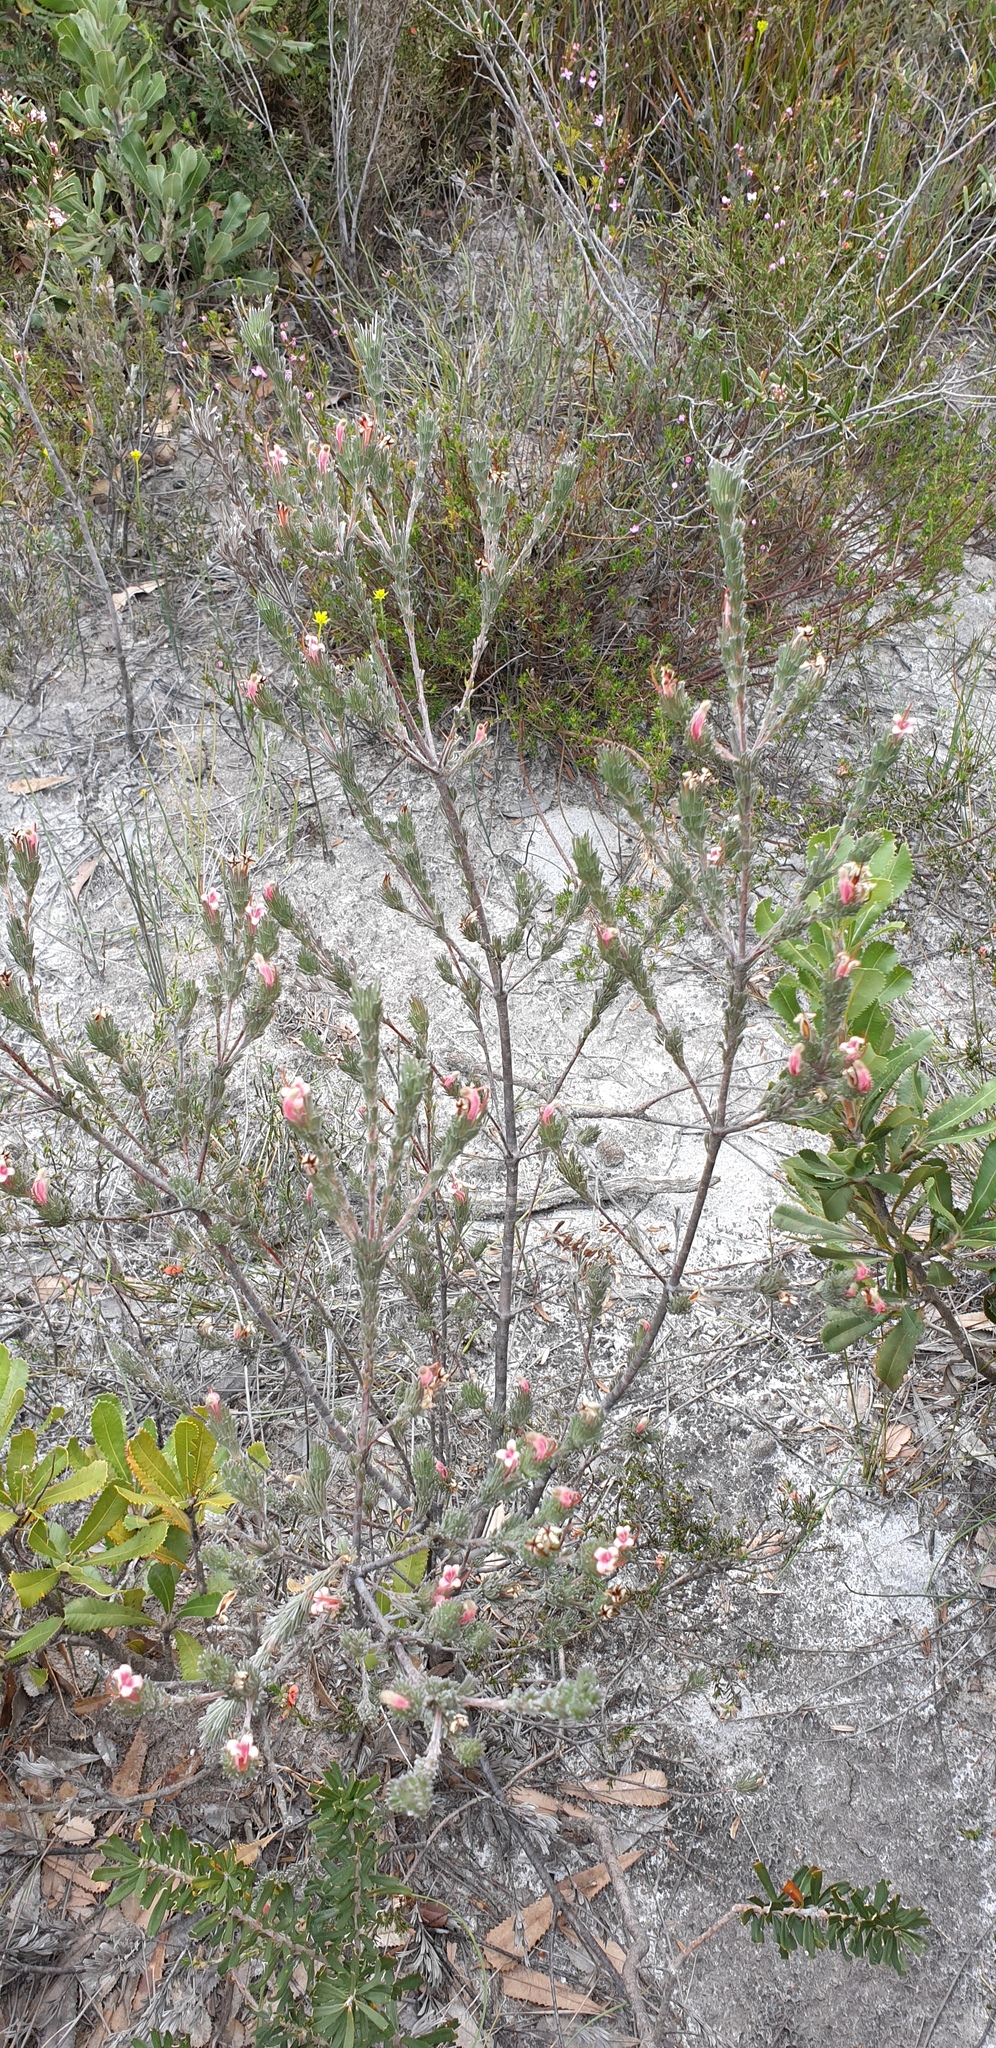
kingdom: Plantae
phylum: Tracheophyta
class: Magnoliopsida
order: Proteales
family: Proteaceae
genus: Adenanthos
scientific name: Adenanthos macropodianus
